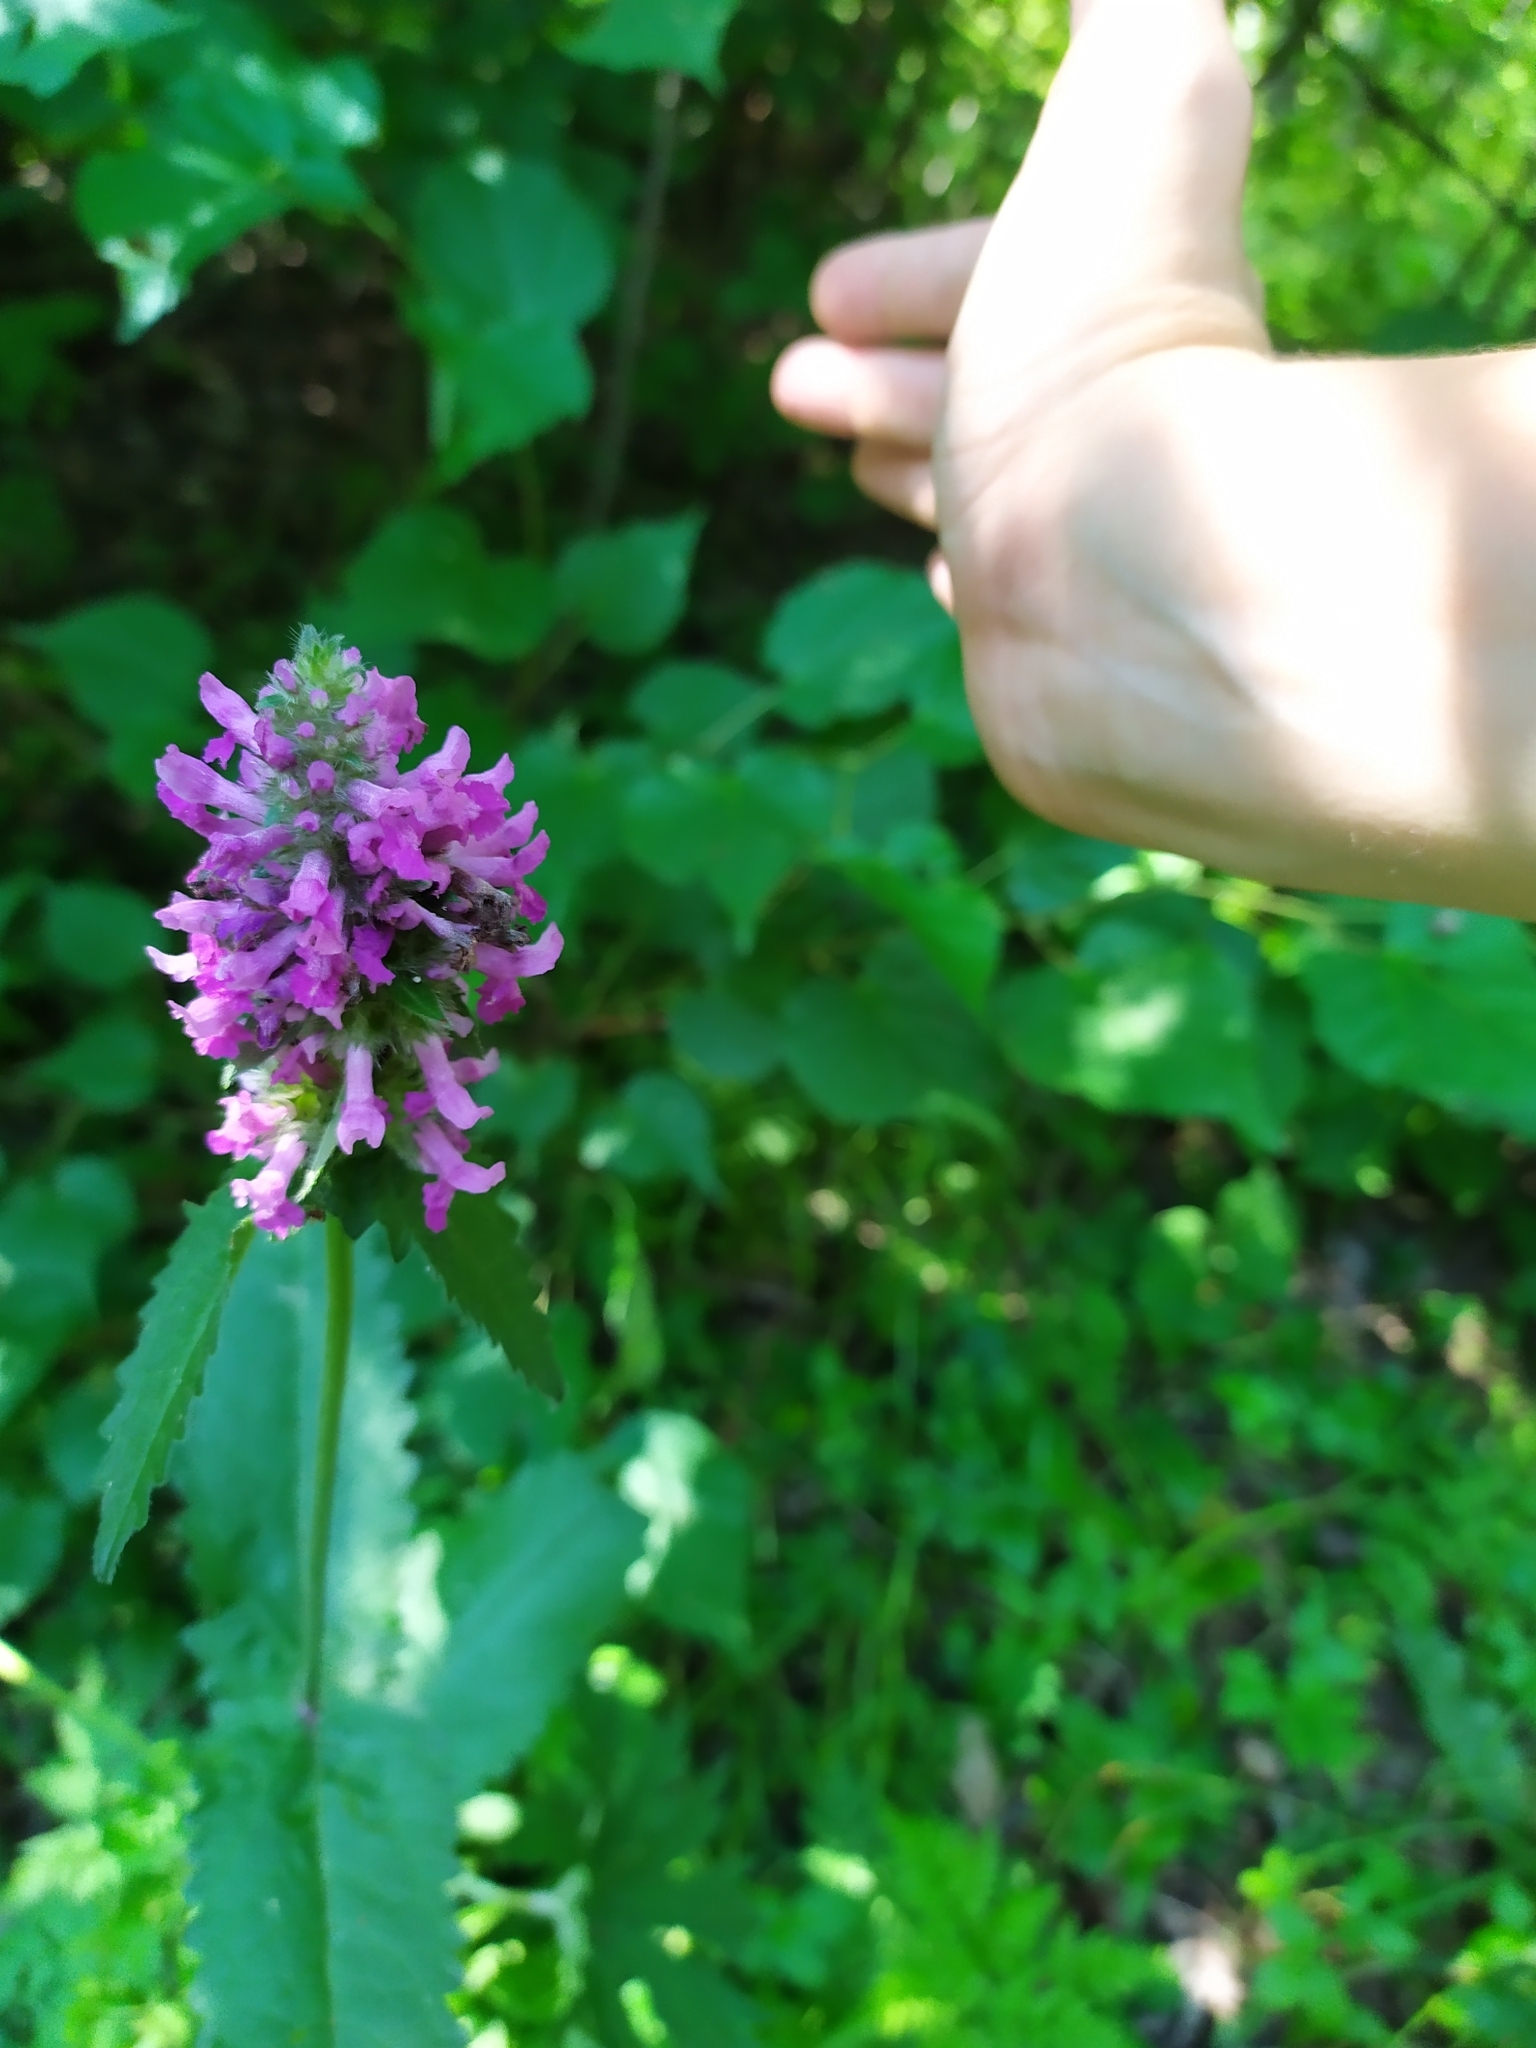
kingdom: Plantae
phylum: Tracheophyta
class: Magnoliopsida
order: Lamiales
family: Lamiaceae
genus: Betonica
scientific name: Betonica officinalis
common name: Bishop's-wort
